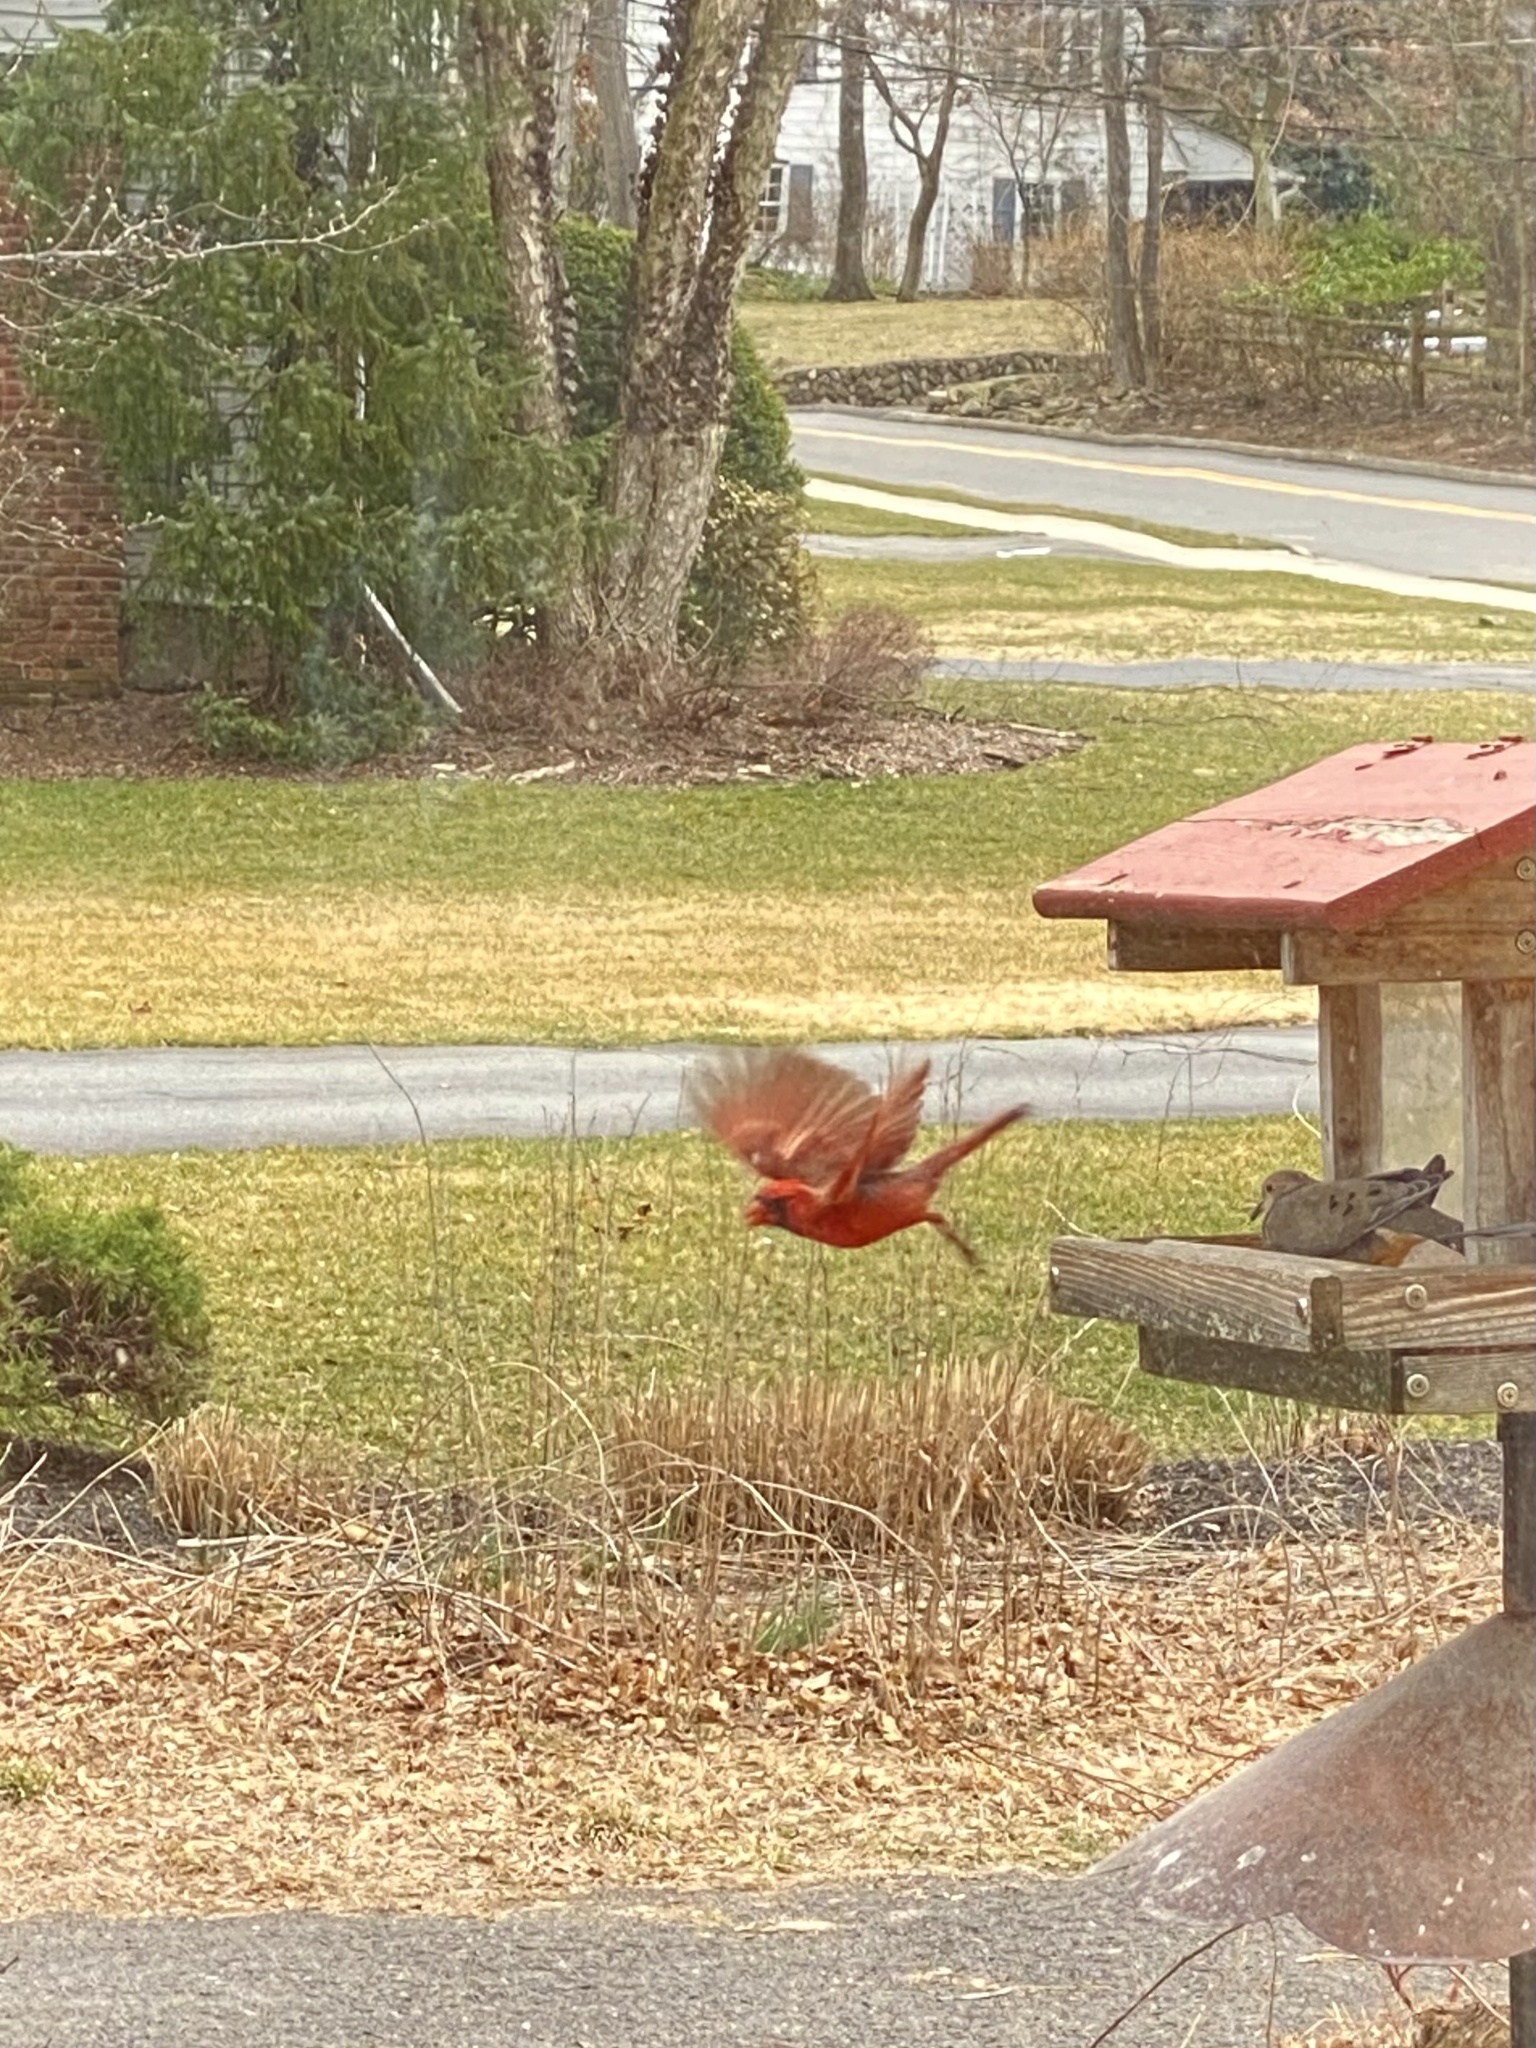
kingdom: Animalia
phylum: Chordata
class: Aves
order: Passeriformes
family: Cardinalidae
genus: Cardinalis
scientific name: Cardinalis cardinalis
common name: Northern cardinal
